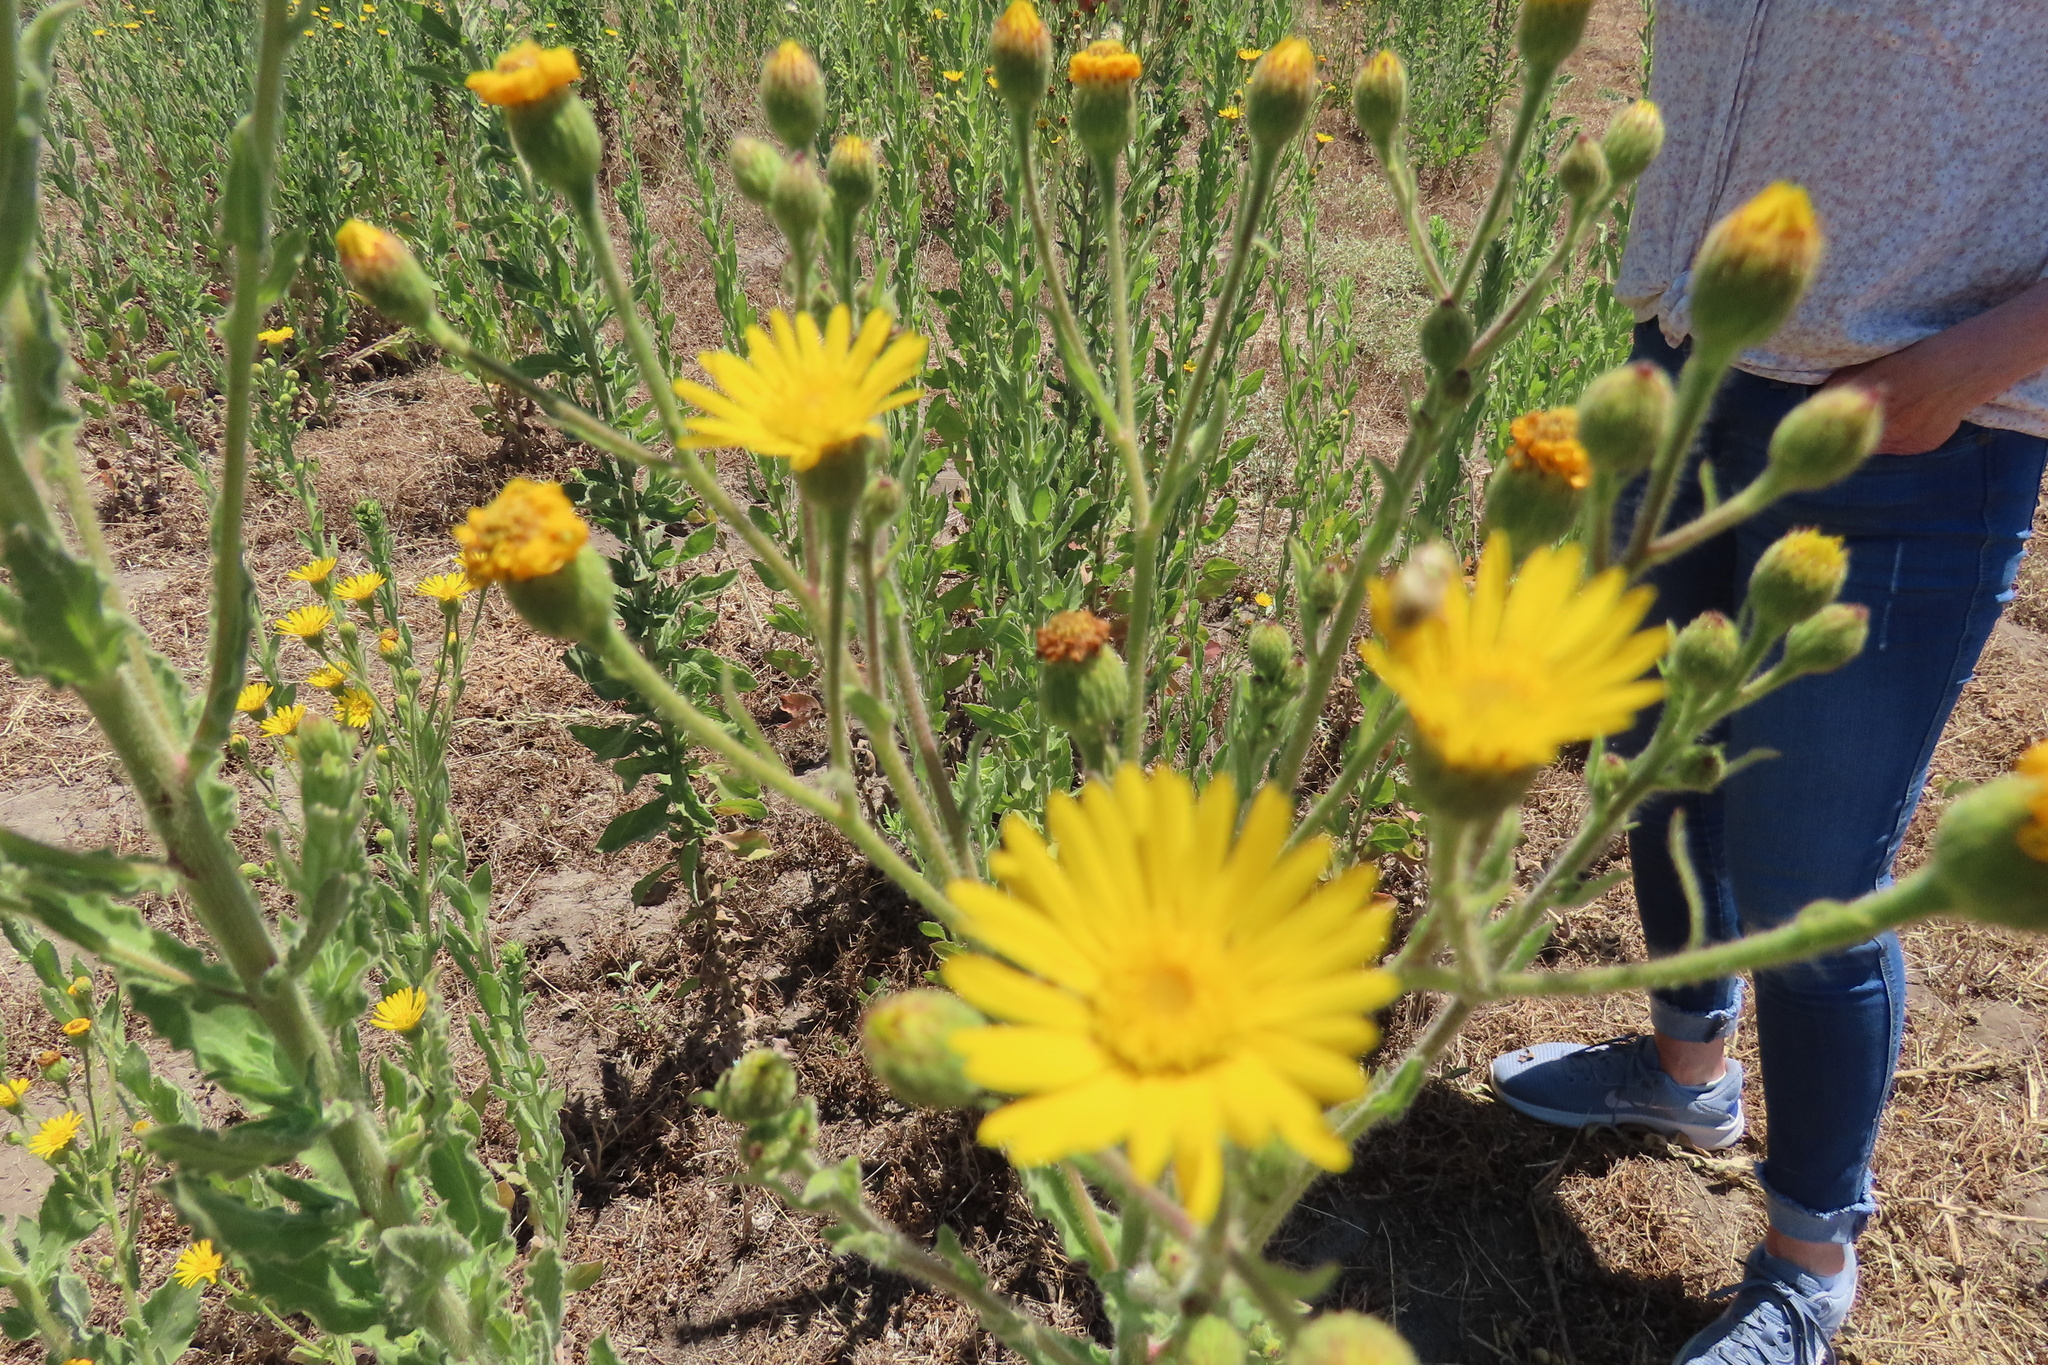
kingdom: Plantae
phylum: Tracheophyta
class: Magnoliopsida
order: Asterales
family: Asteraceae
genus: Heterotheca
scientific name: Heterotheca grandiflora
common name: Telegraphweed
